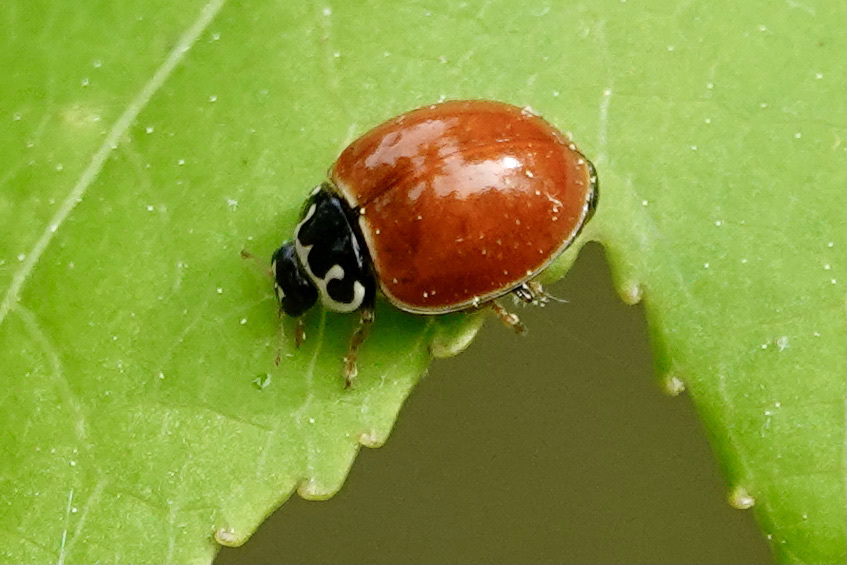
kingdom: Animalia
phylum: Arthropoda
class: Insecta
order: Coleoptera
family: Coccinellidae
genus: Cycloneda
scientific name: Cycloneda munda
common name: Polished lady beetle
